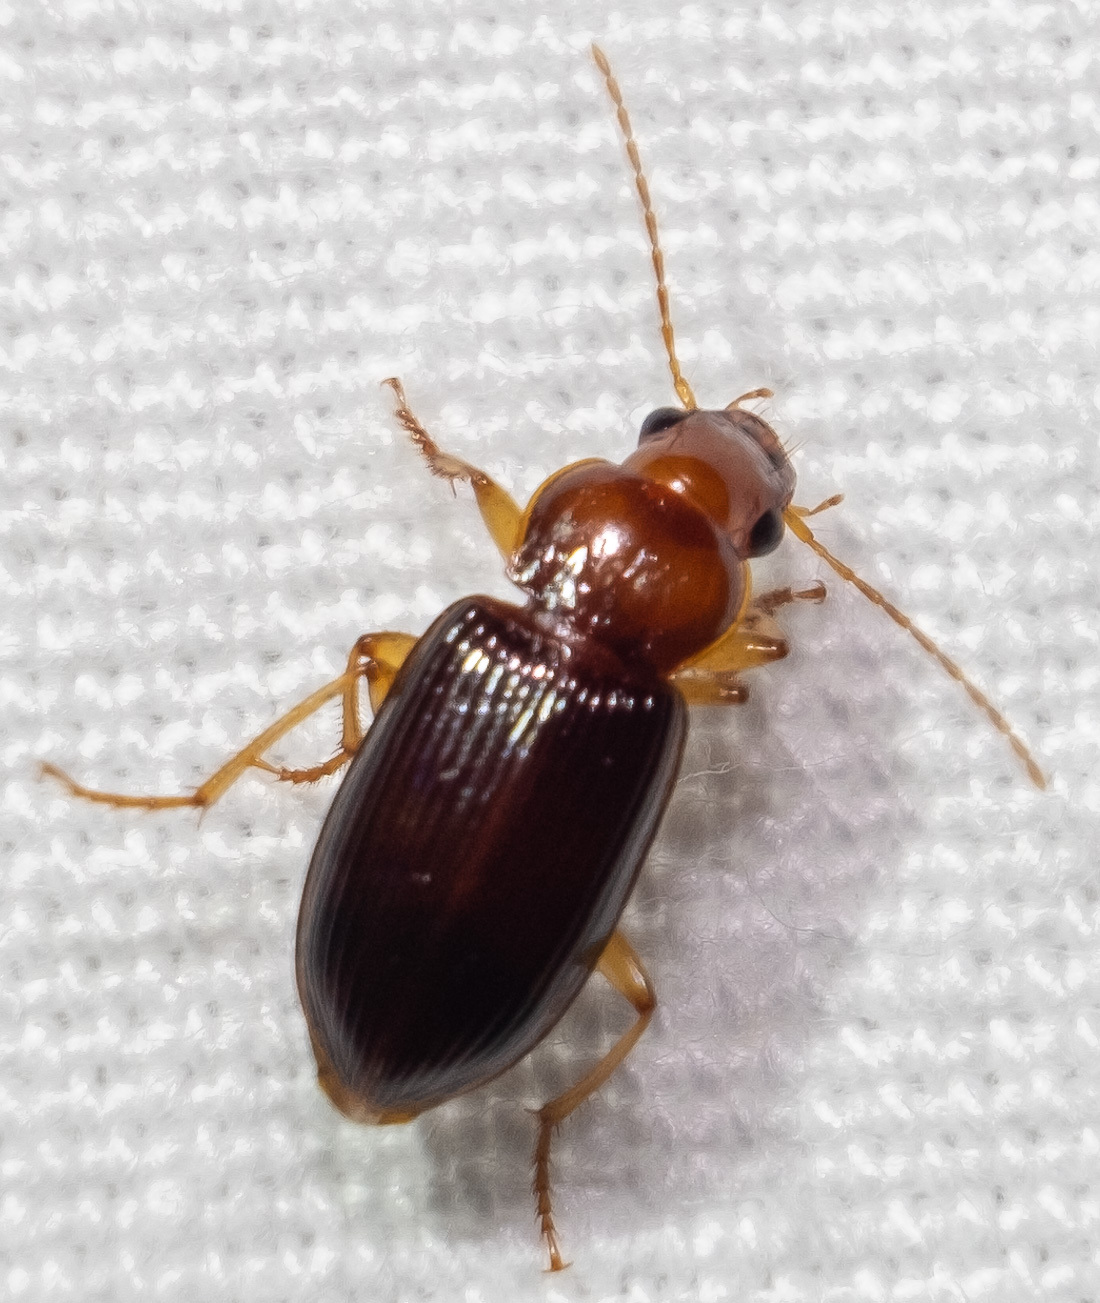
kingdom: Animalia
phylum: Arthropoda
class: Insecta
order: Coleoptera
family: Carabidae
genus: Trichotichnus
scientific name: Trichotichnus vulpeculus
